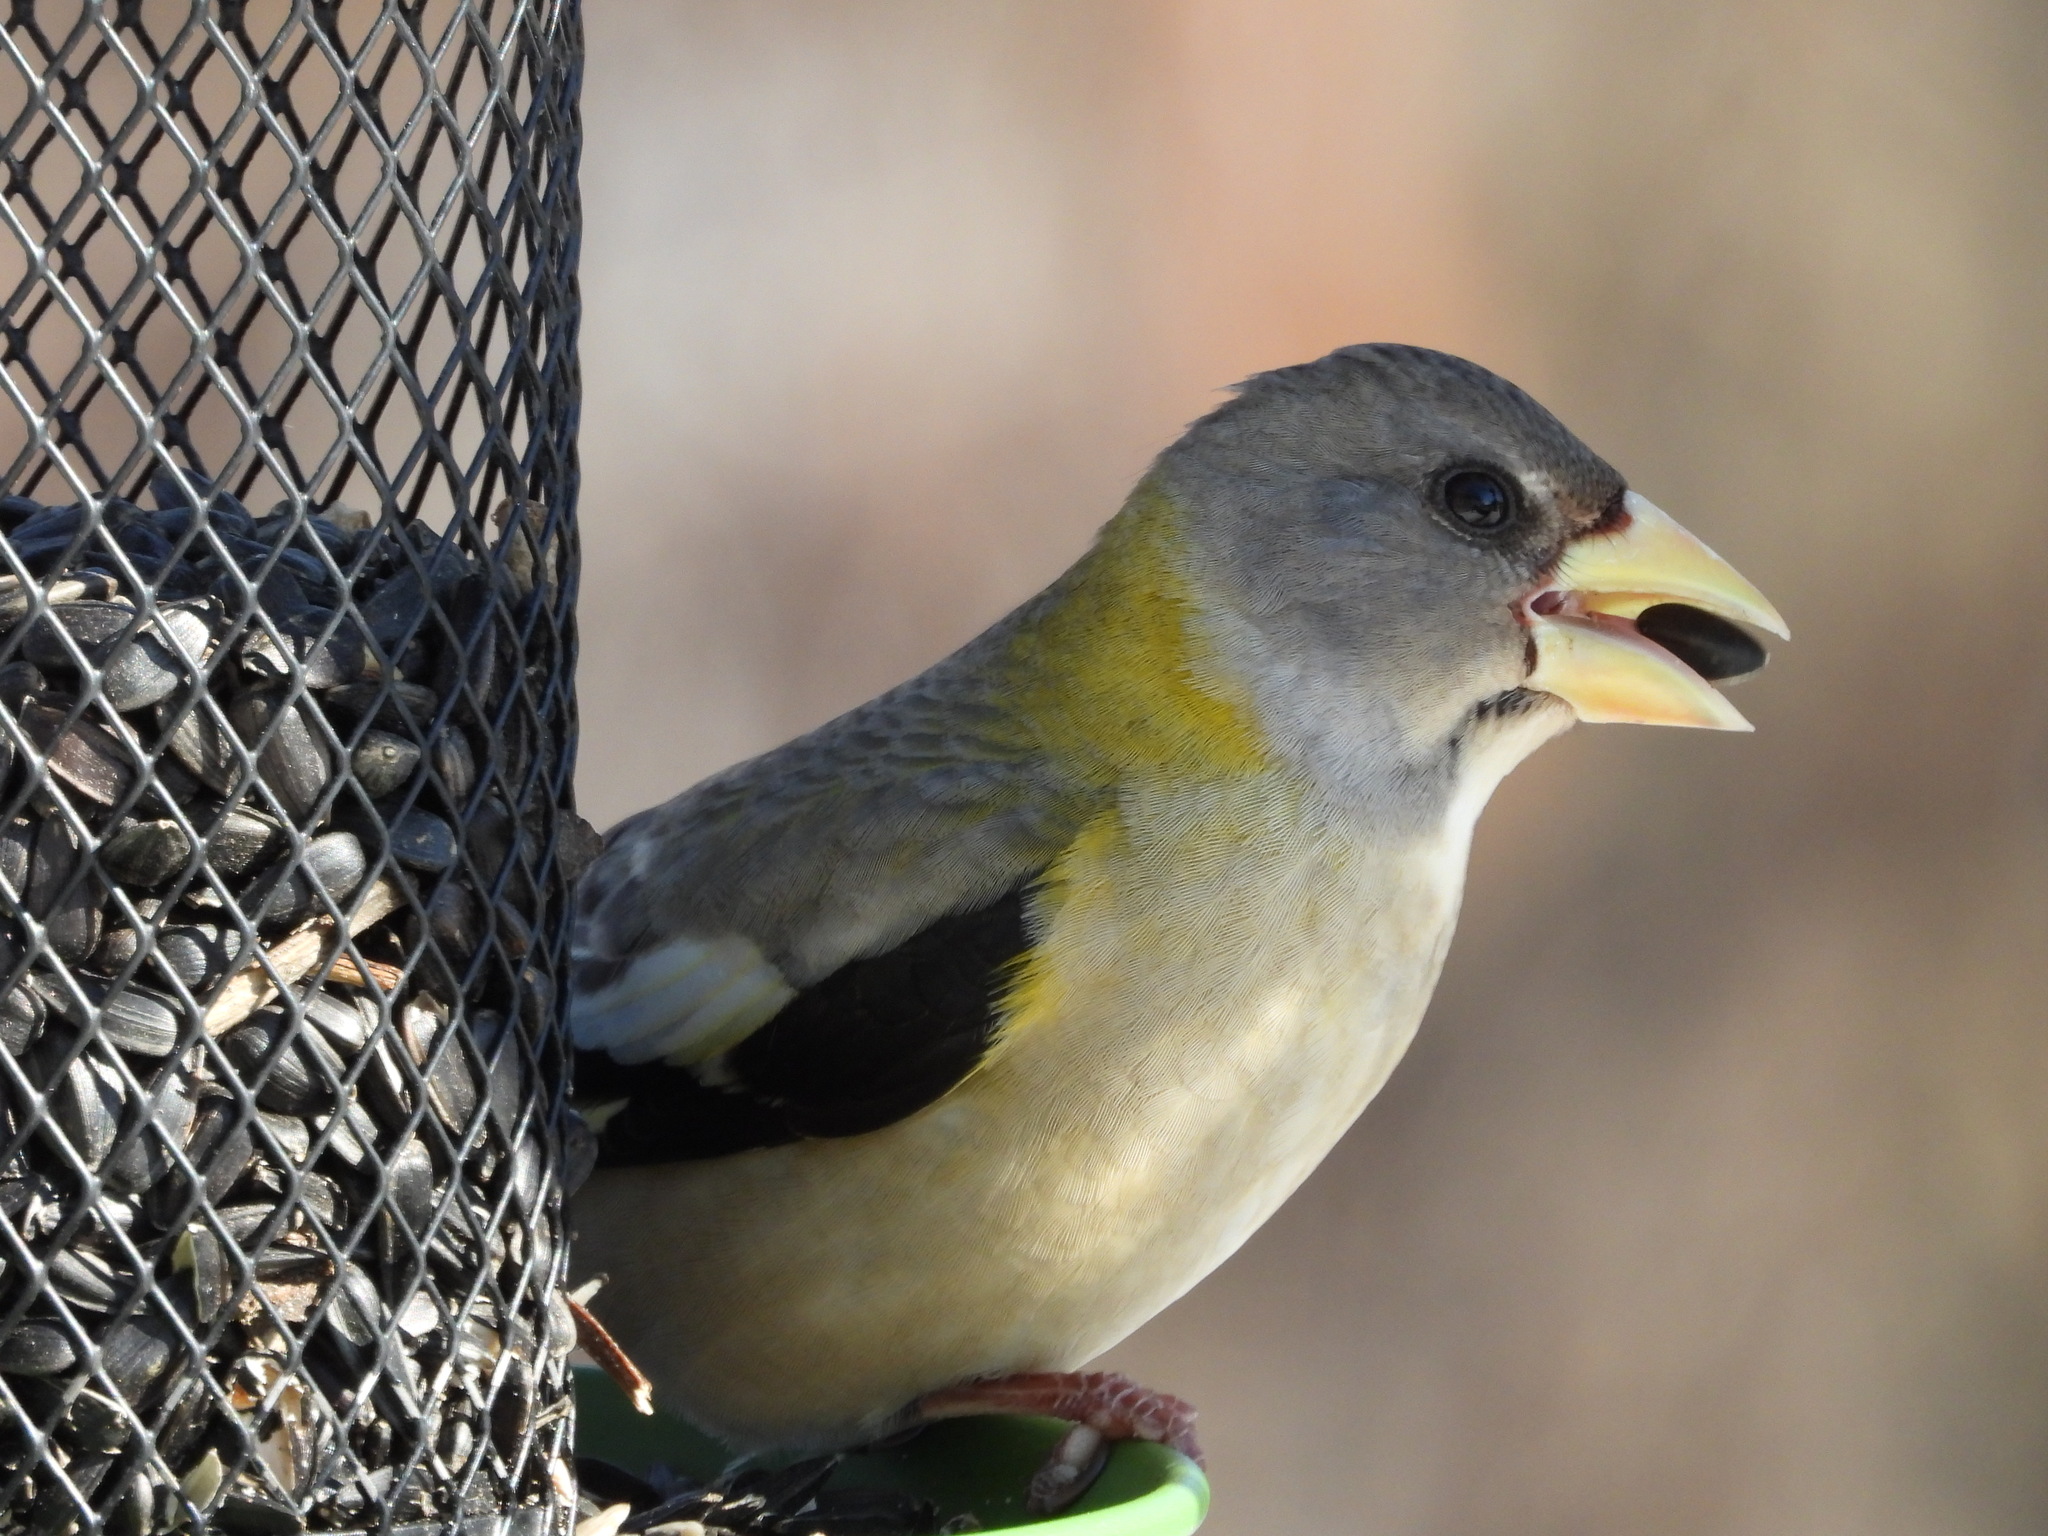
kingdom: Animalia
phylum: Chordata
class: Aves
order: Passeriformes
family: Fringillidae
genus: Hesperiphona
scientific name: Hesperiphona vespertina
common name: Evening grosbeak
